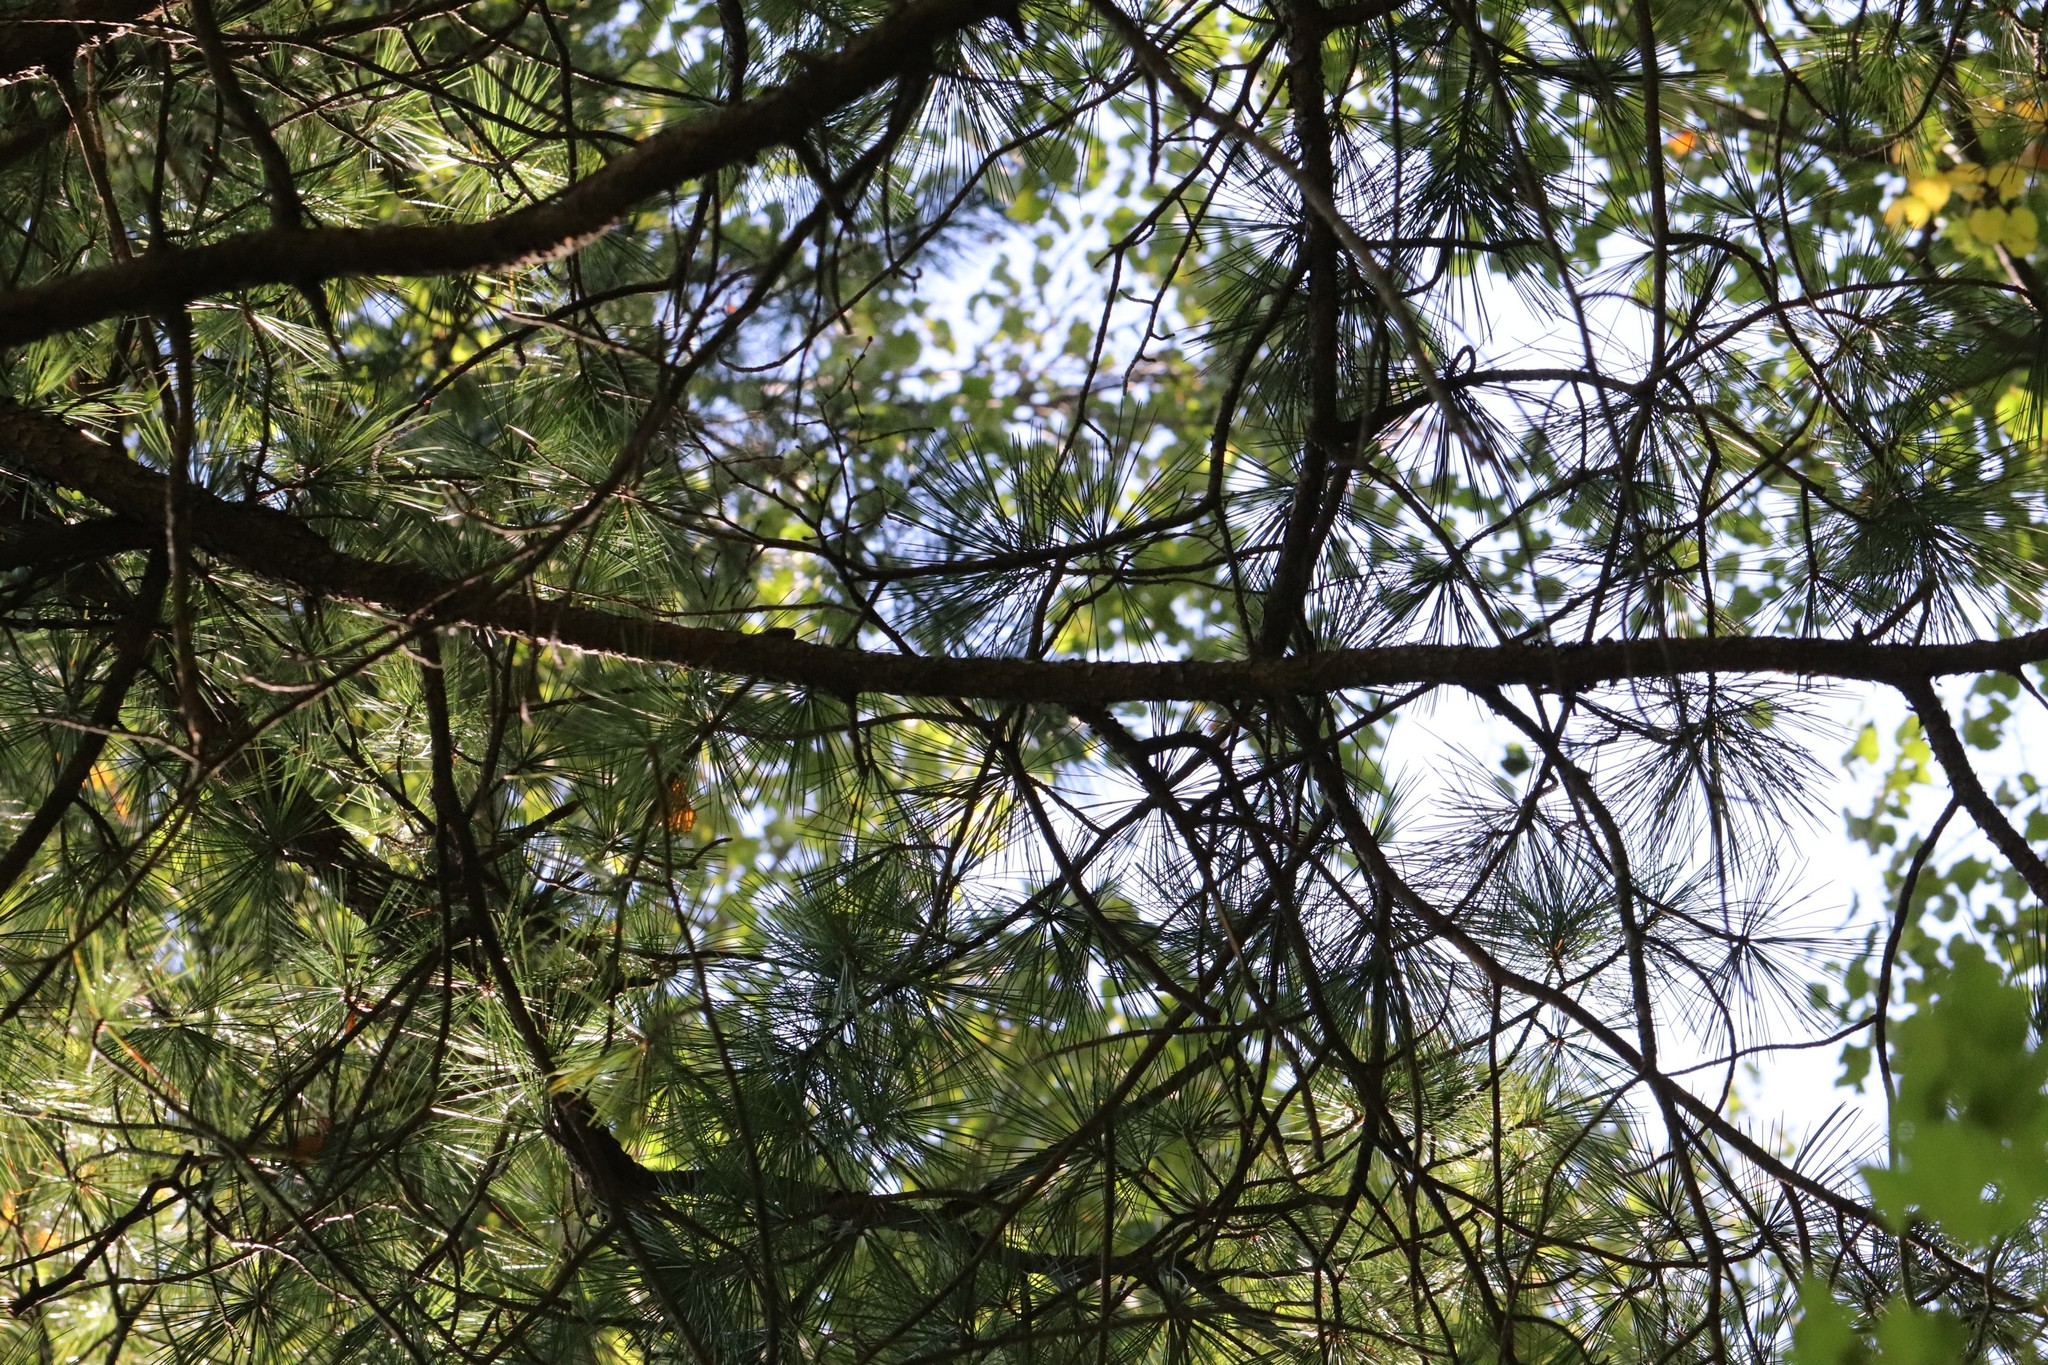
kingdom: Plantae
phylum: Tracheophyta
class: Pinopsida
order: Pinales
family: Pinaceae
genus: Pinus
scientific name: Pinus koraiensis
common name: Korean pine
